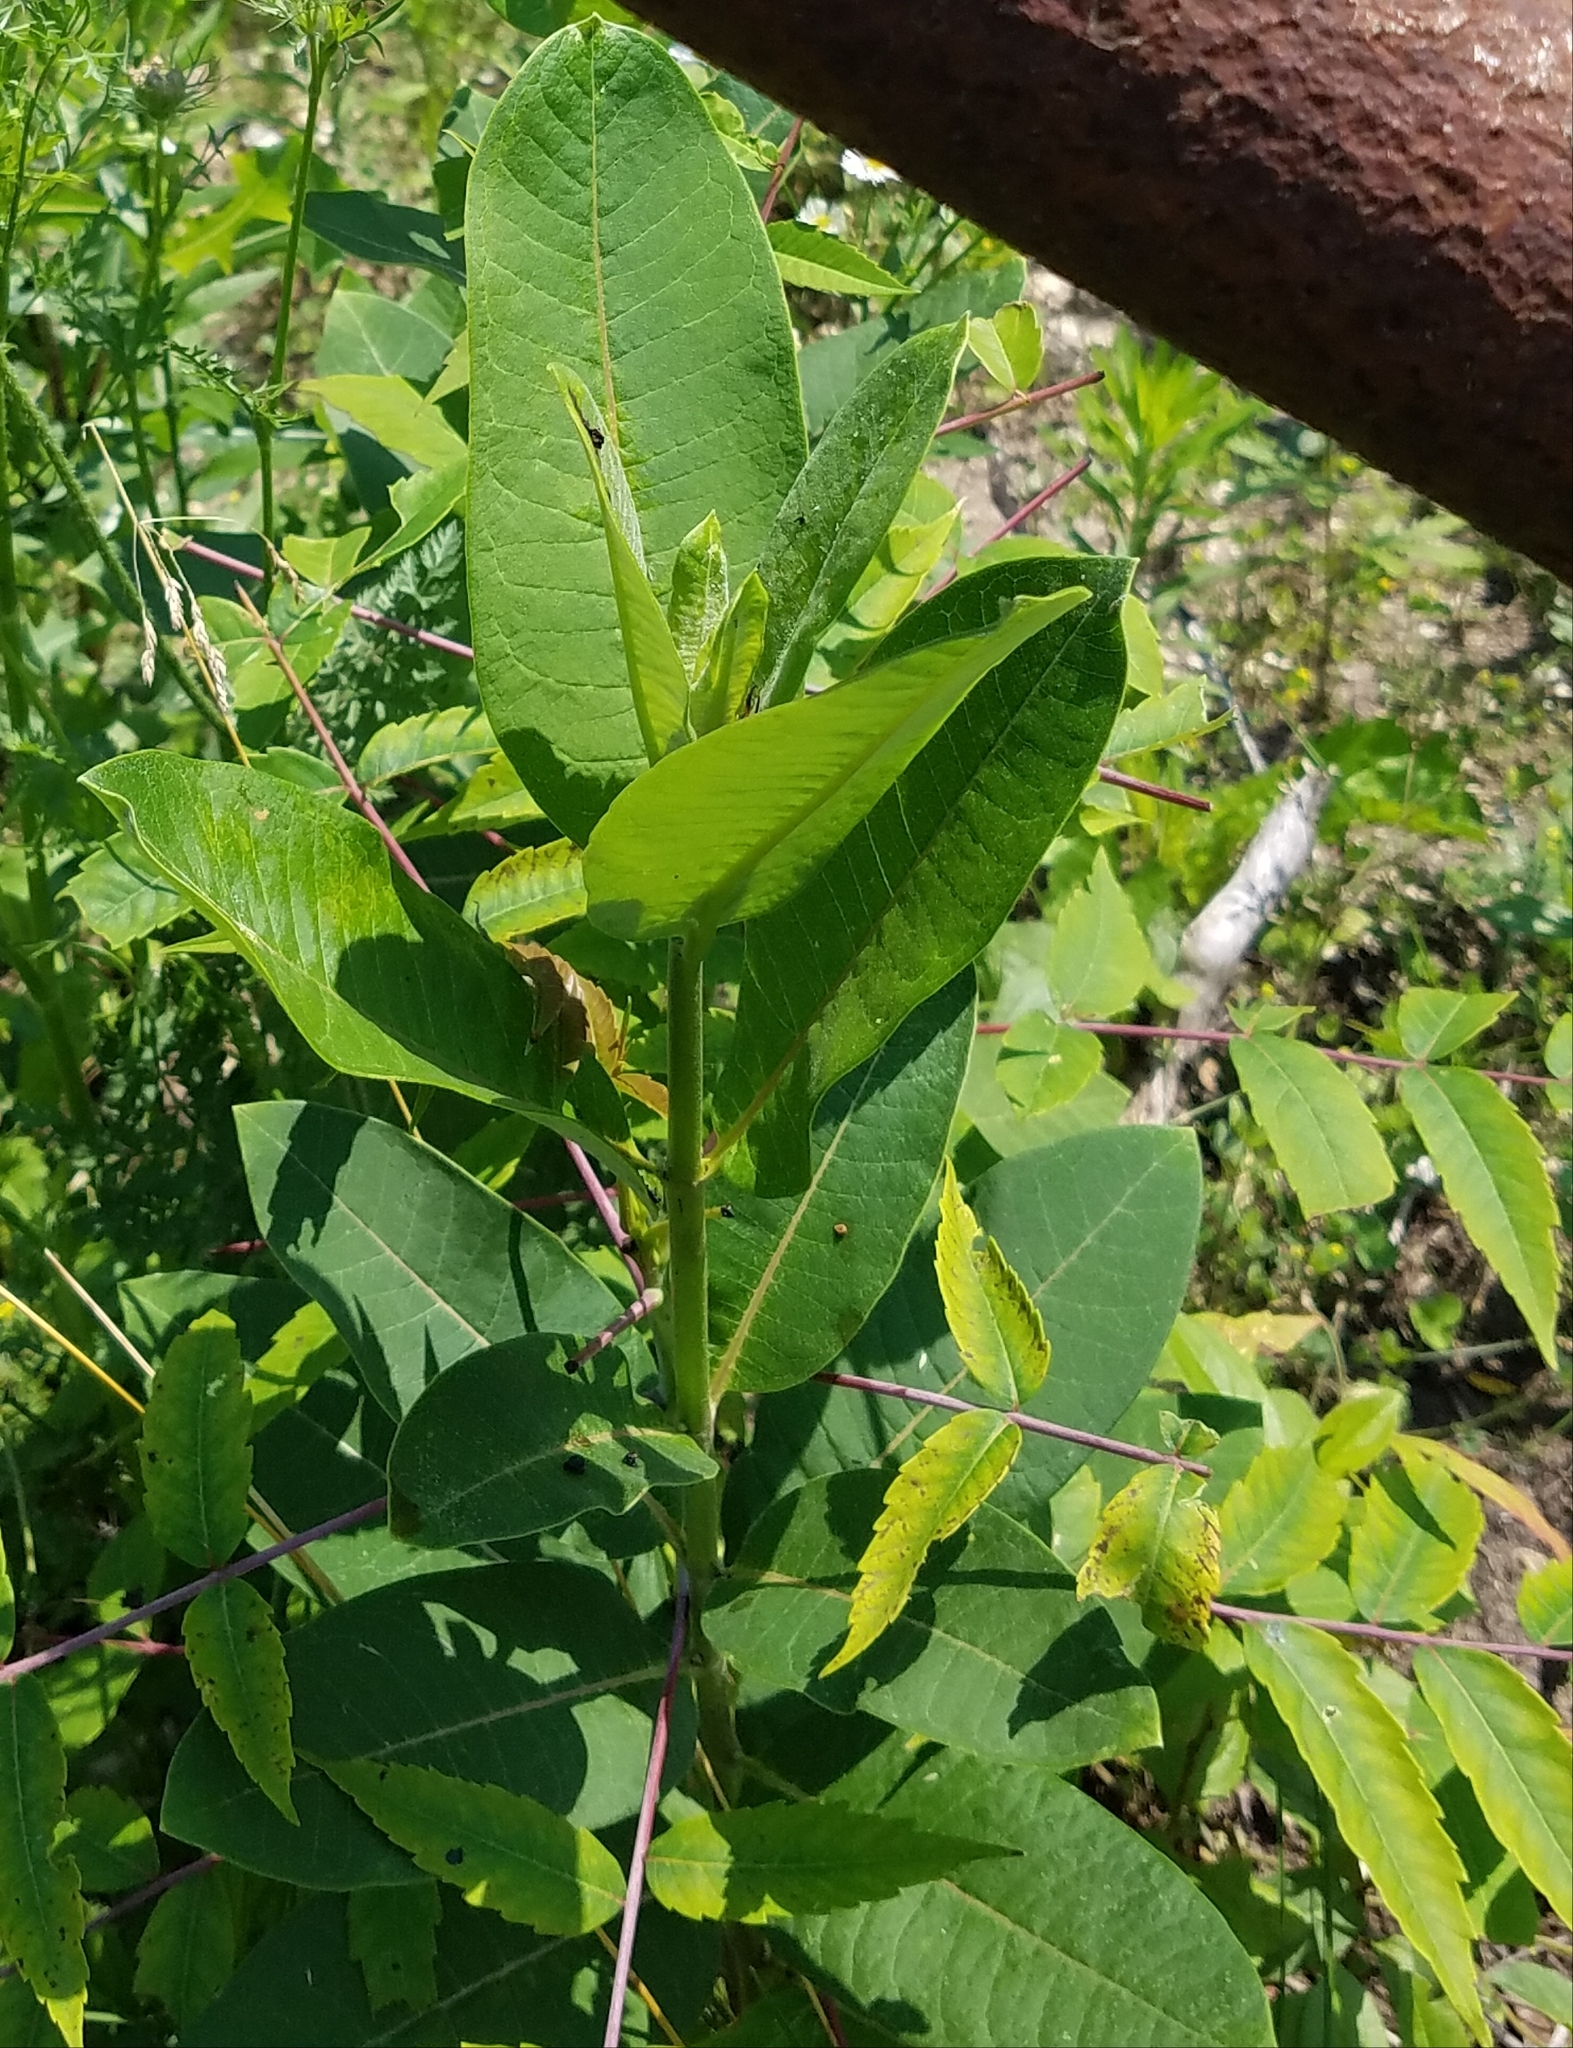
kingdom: Plantae
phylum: Tracheophyta
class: Magnoliopsida
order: Gentianales
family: Apocynaceae
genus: Apocynum
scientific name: Apocynum cannabinum
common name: Hemp dogbane
